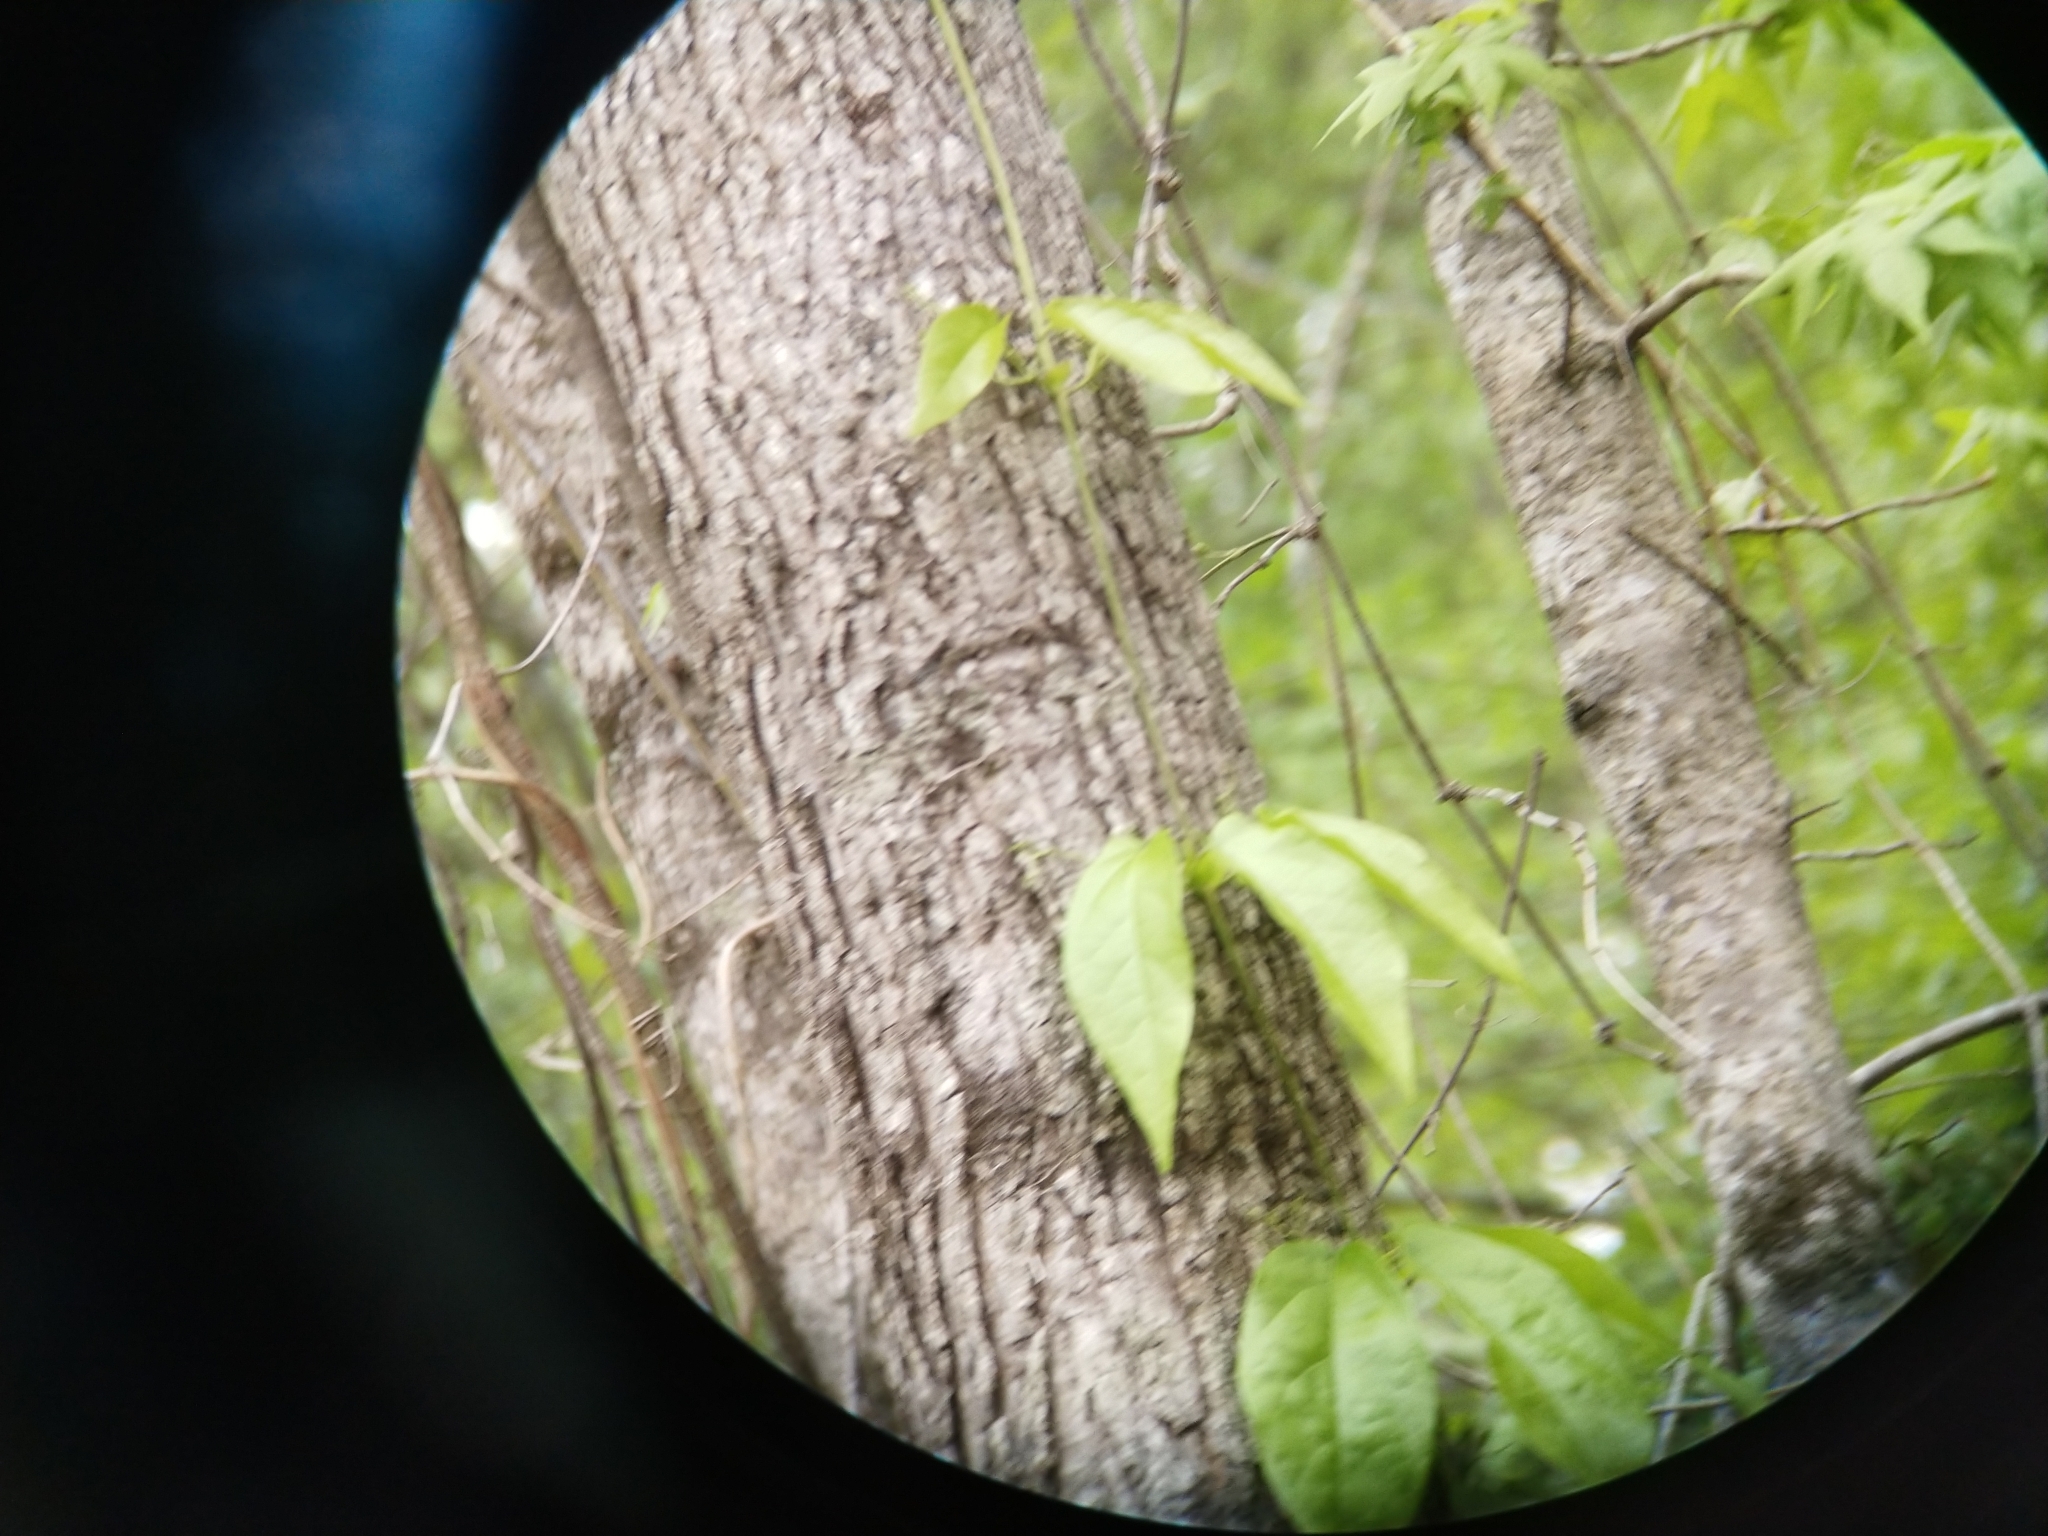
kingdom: Plantae
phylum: Tracheophyta
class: Magnoliopsida
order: Lamiales
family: Bignoniaceae
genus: Bignonia
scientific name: Bignonia capreolata
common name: Crossvine
